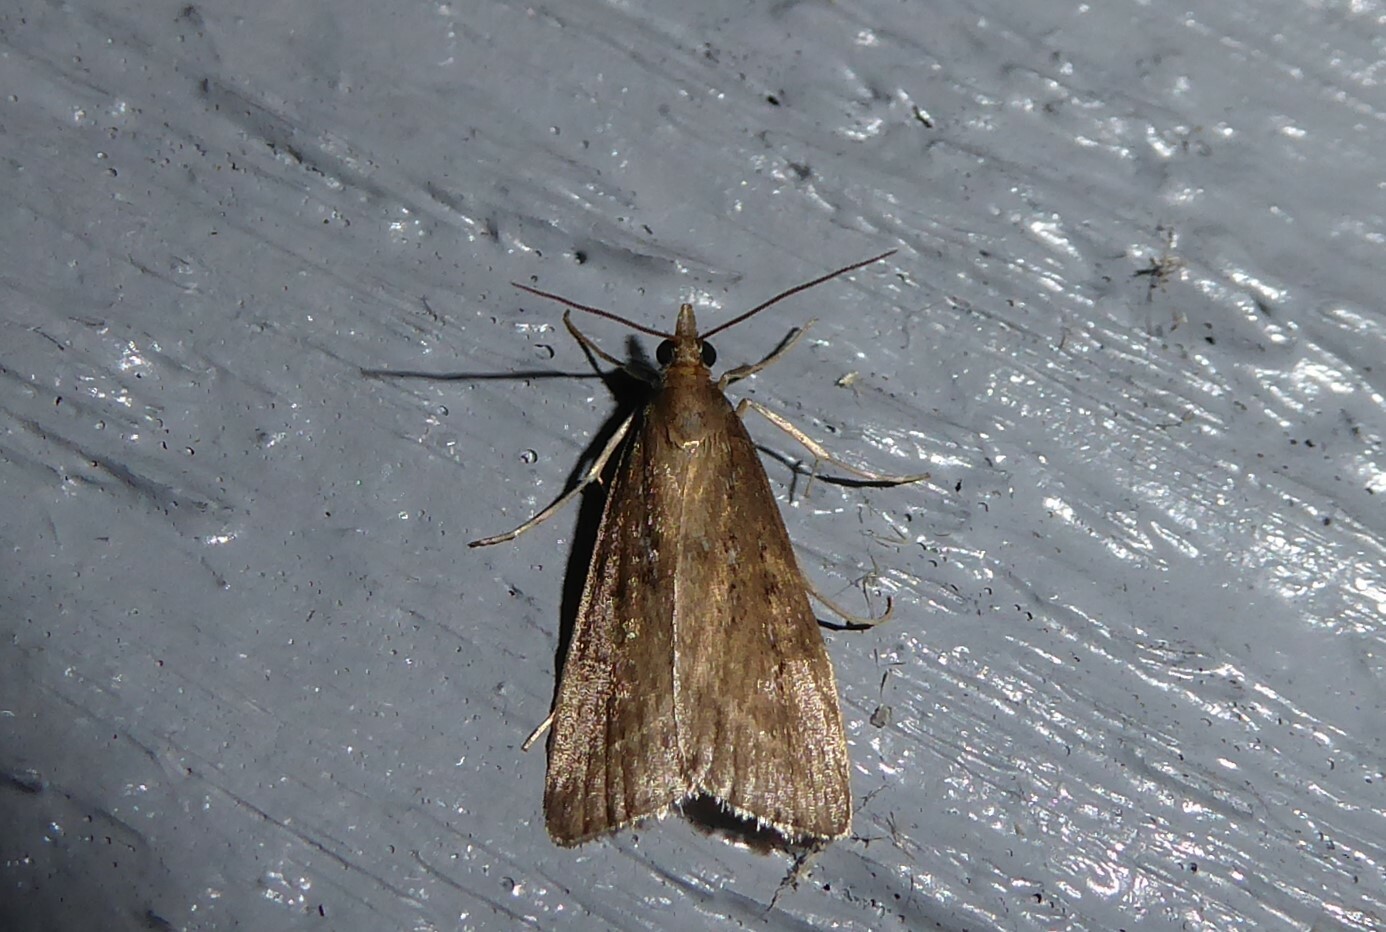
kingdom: Animalia
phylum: Arthropoda
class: Insecta
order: Lepidoptera
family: Crambidae
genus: Eudonia
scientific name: Eudonia octophora
